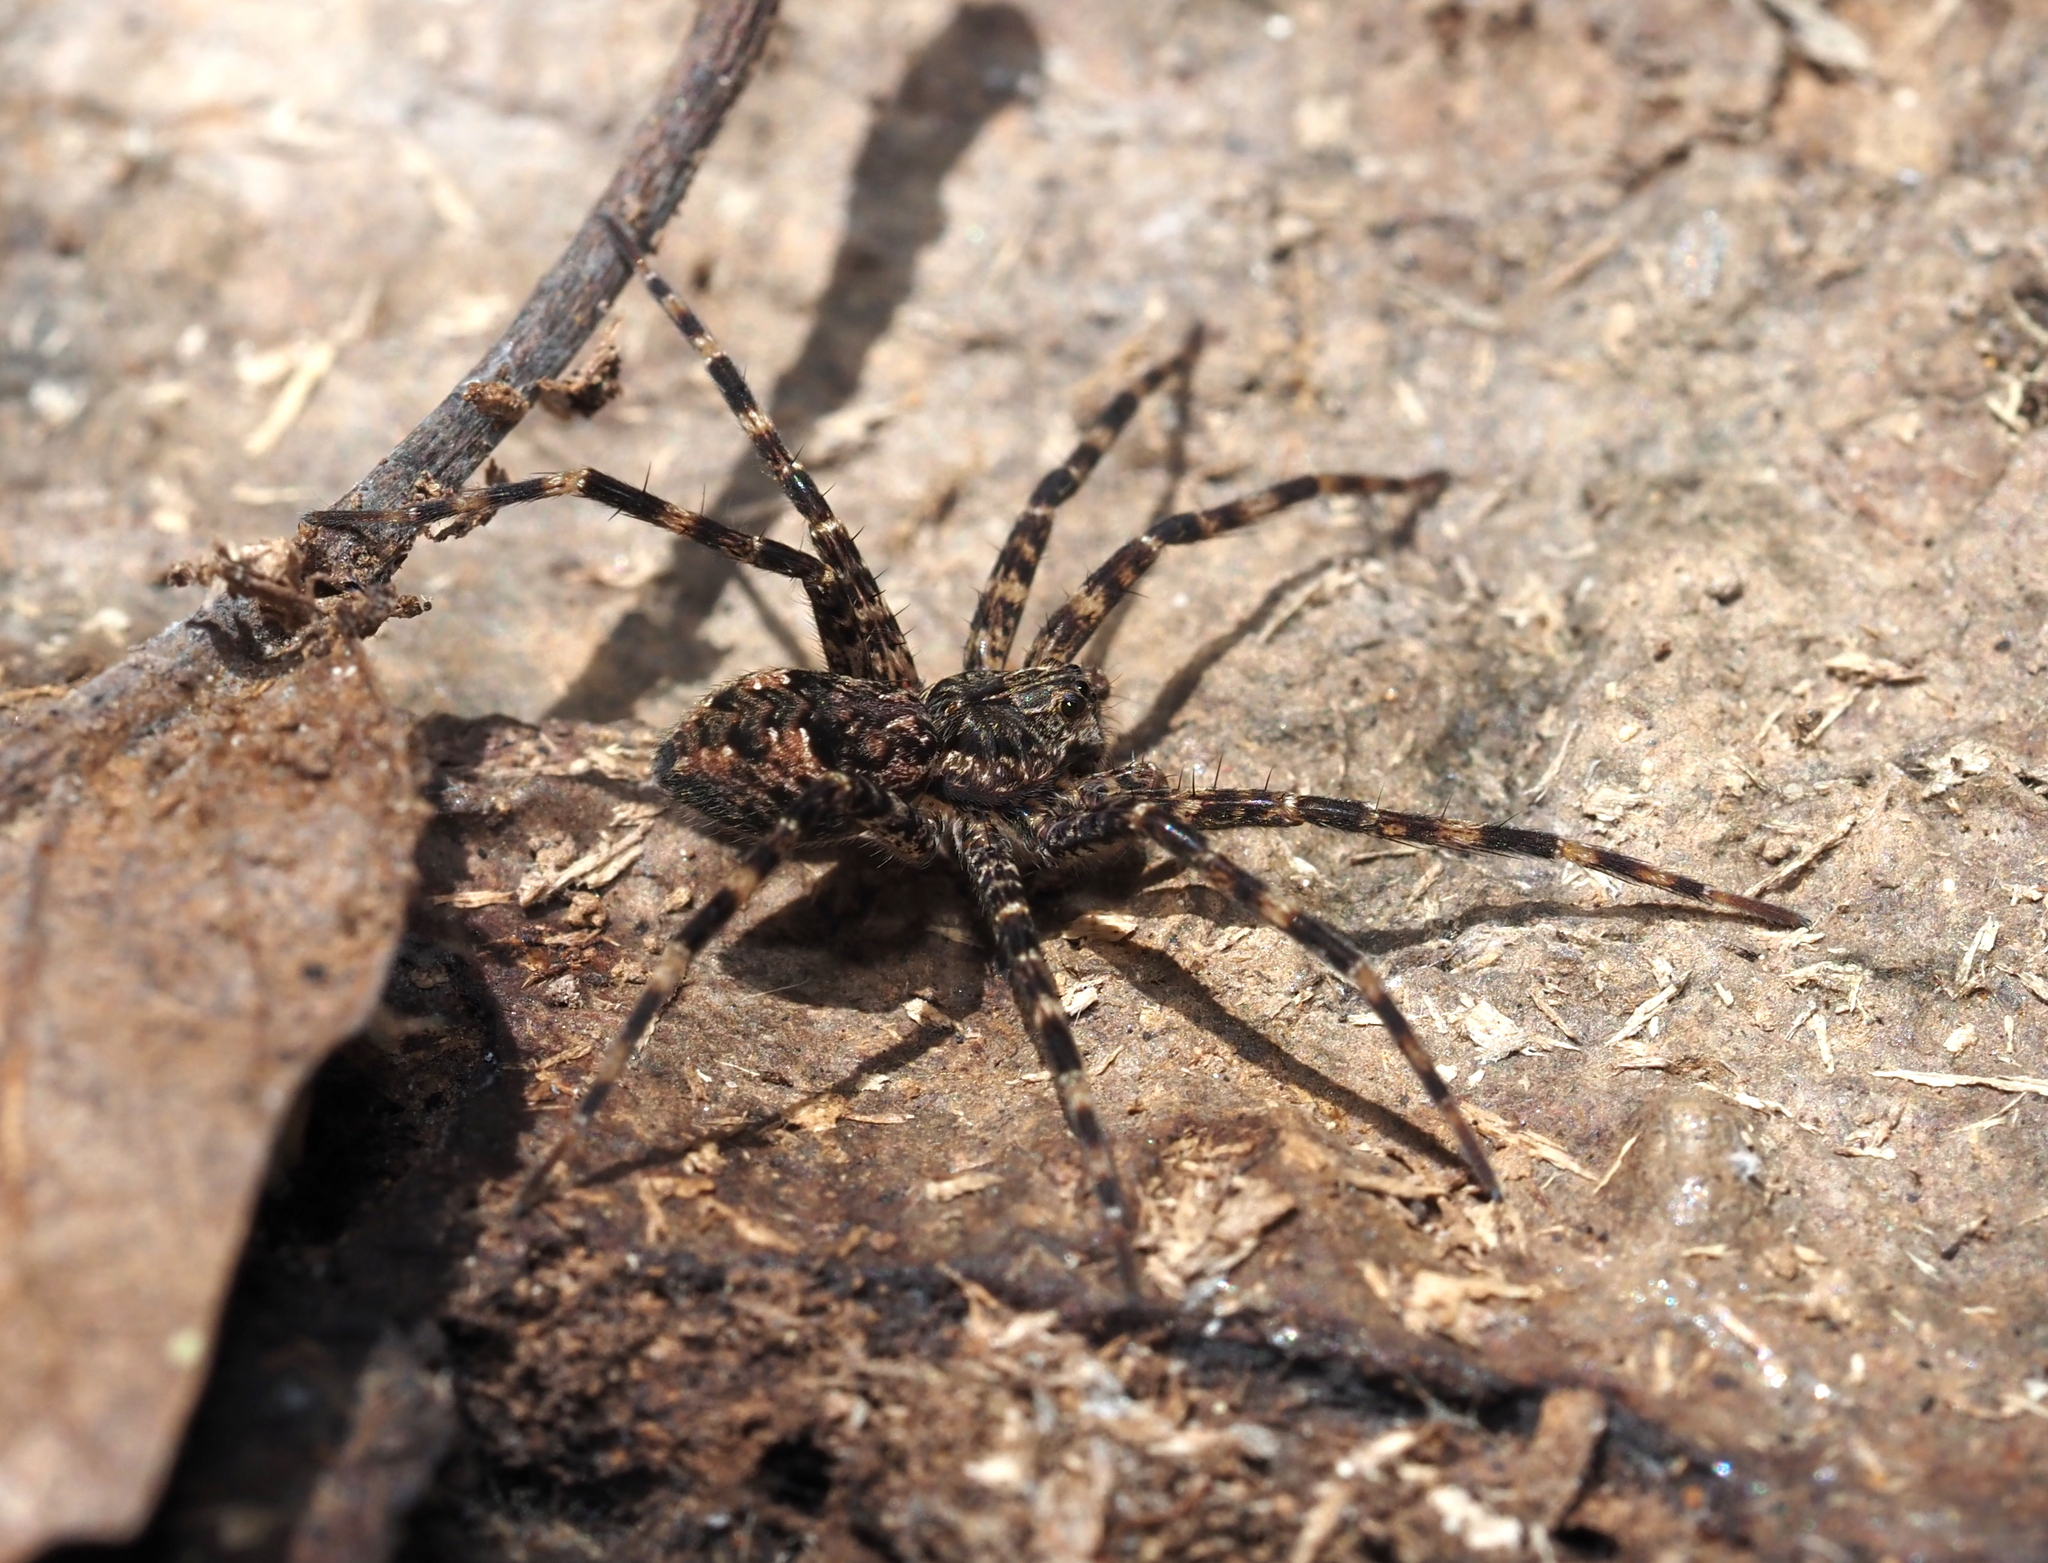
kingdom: Animalia
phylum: Arthropoda
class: Arachnida
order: Araneae
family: Pisauridae
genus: Dolomedes
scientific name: Dolomedes tenebrosus
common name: Dark fishing spider
